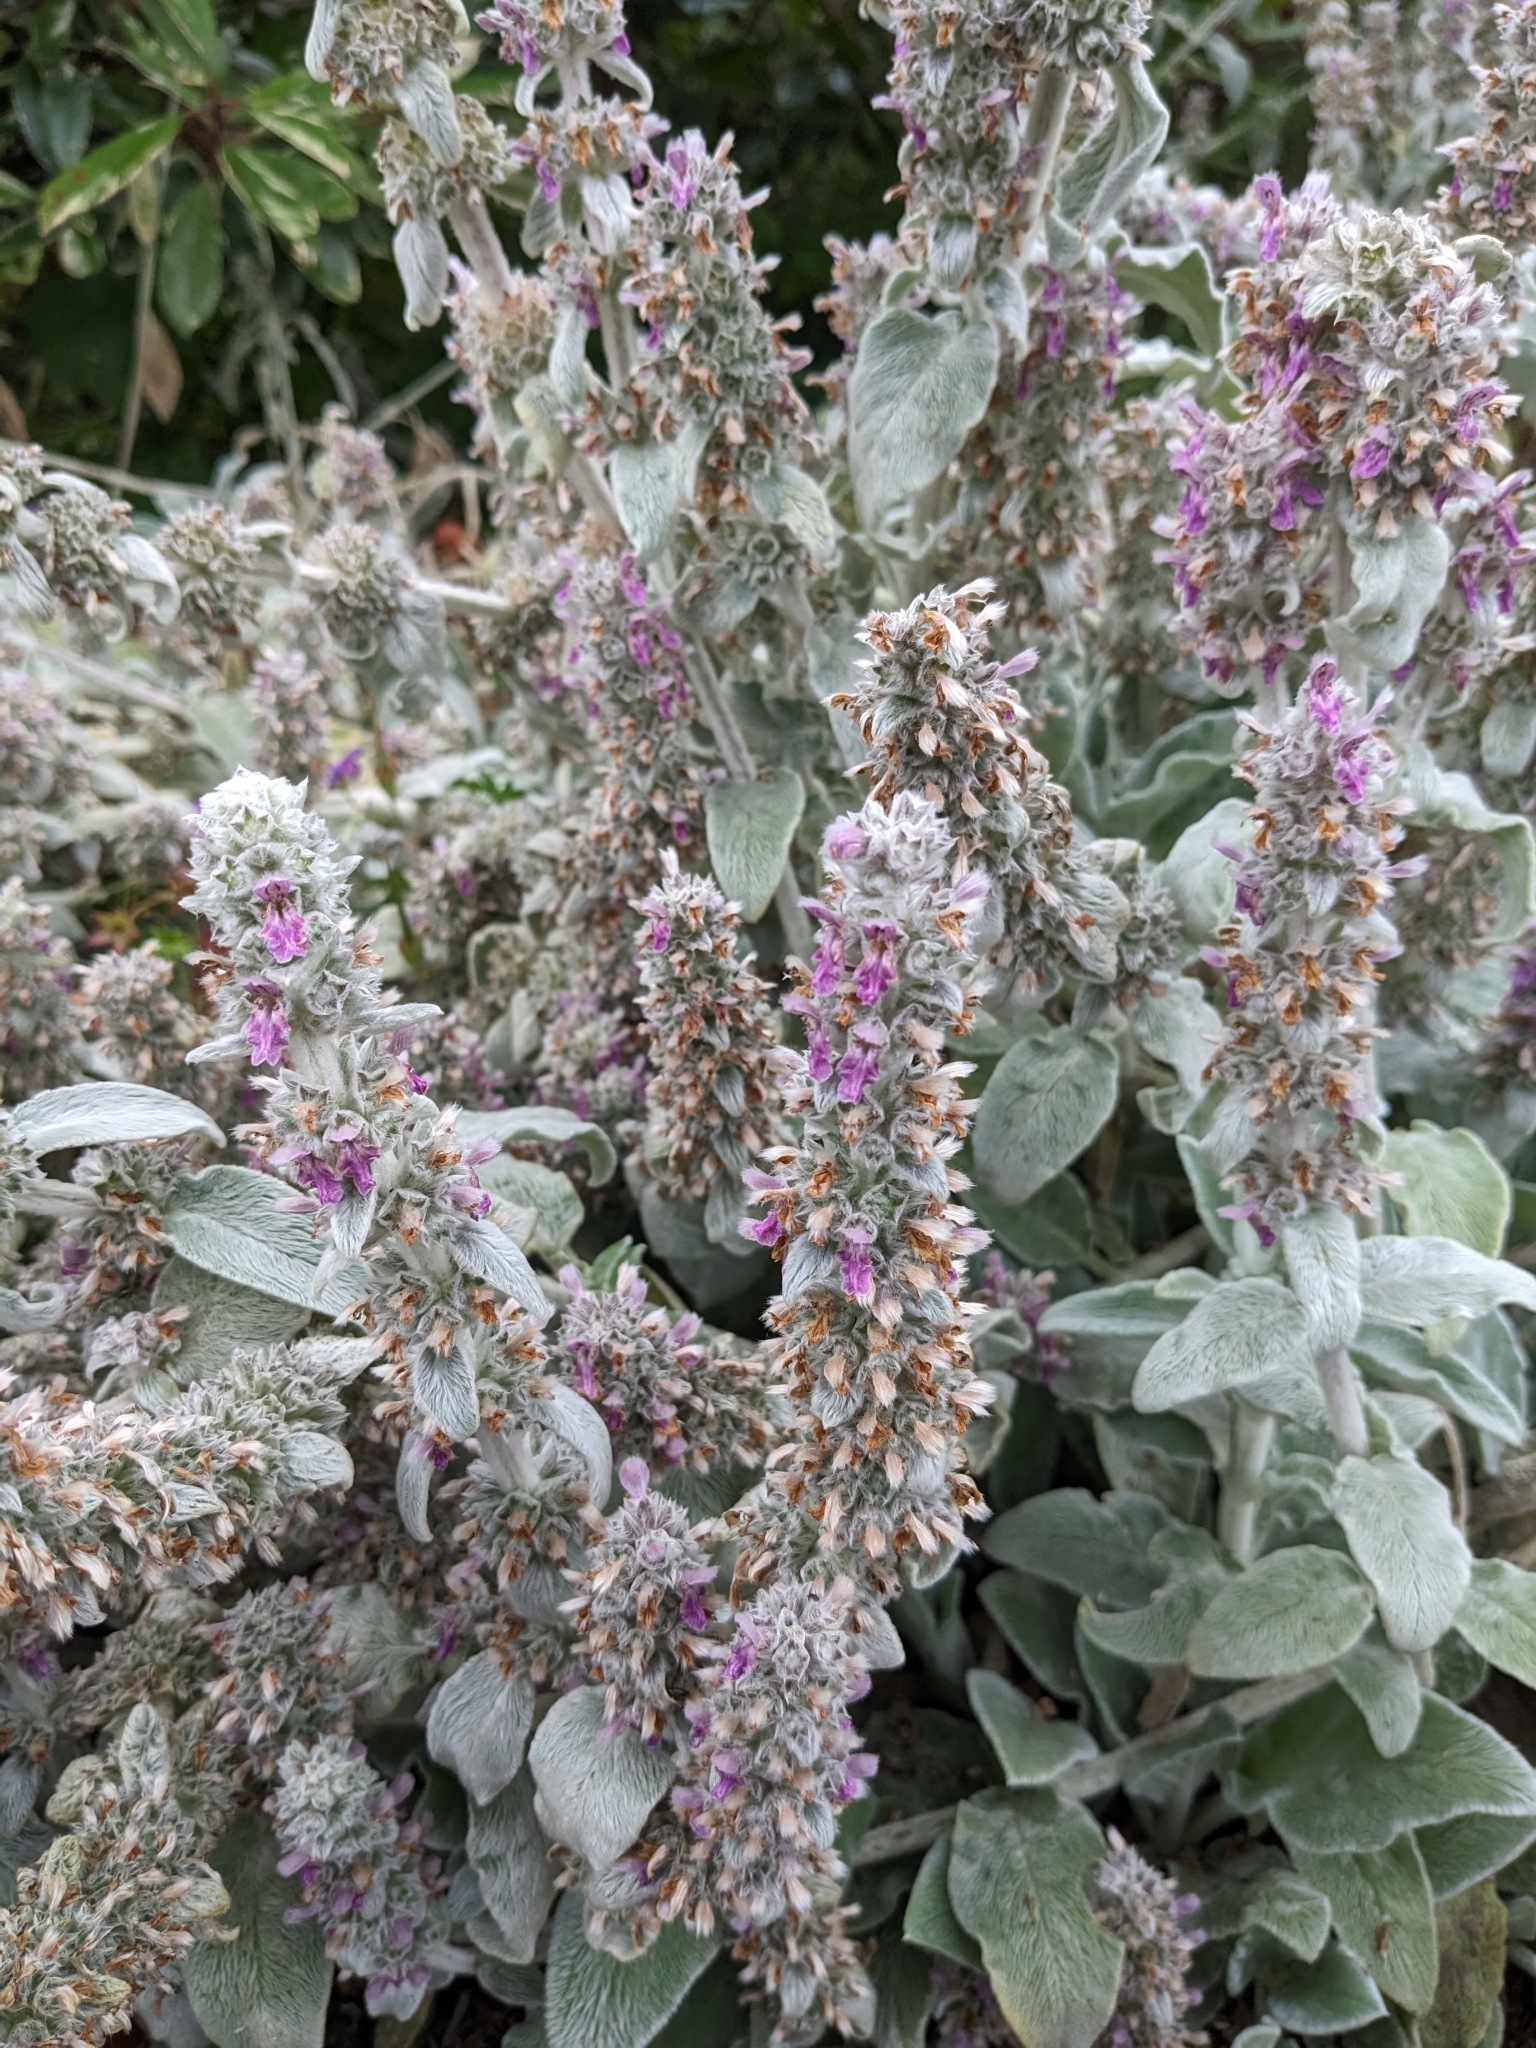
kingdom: Plantae
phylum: Tracheophyta
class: Magnoliopsida
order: Lamiales
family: Lamiaceae
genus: Stachys
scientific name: Stachys byzantina
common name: Lamb's-ear
